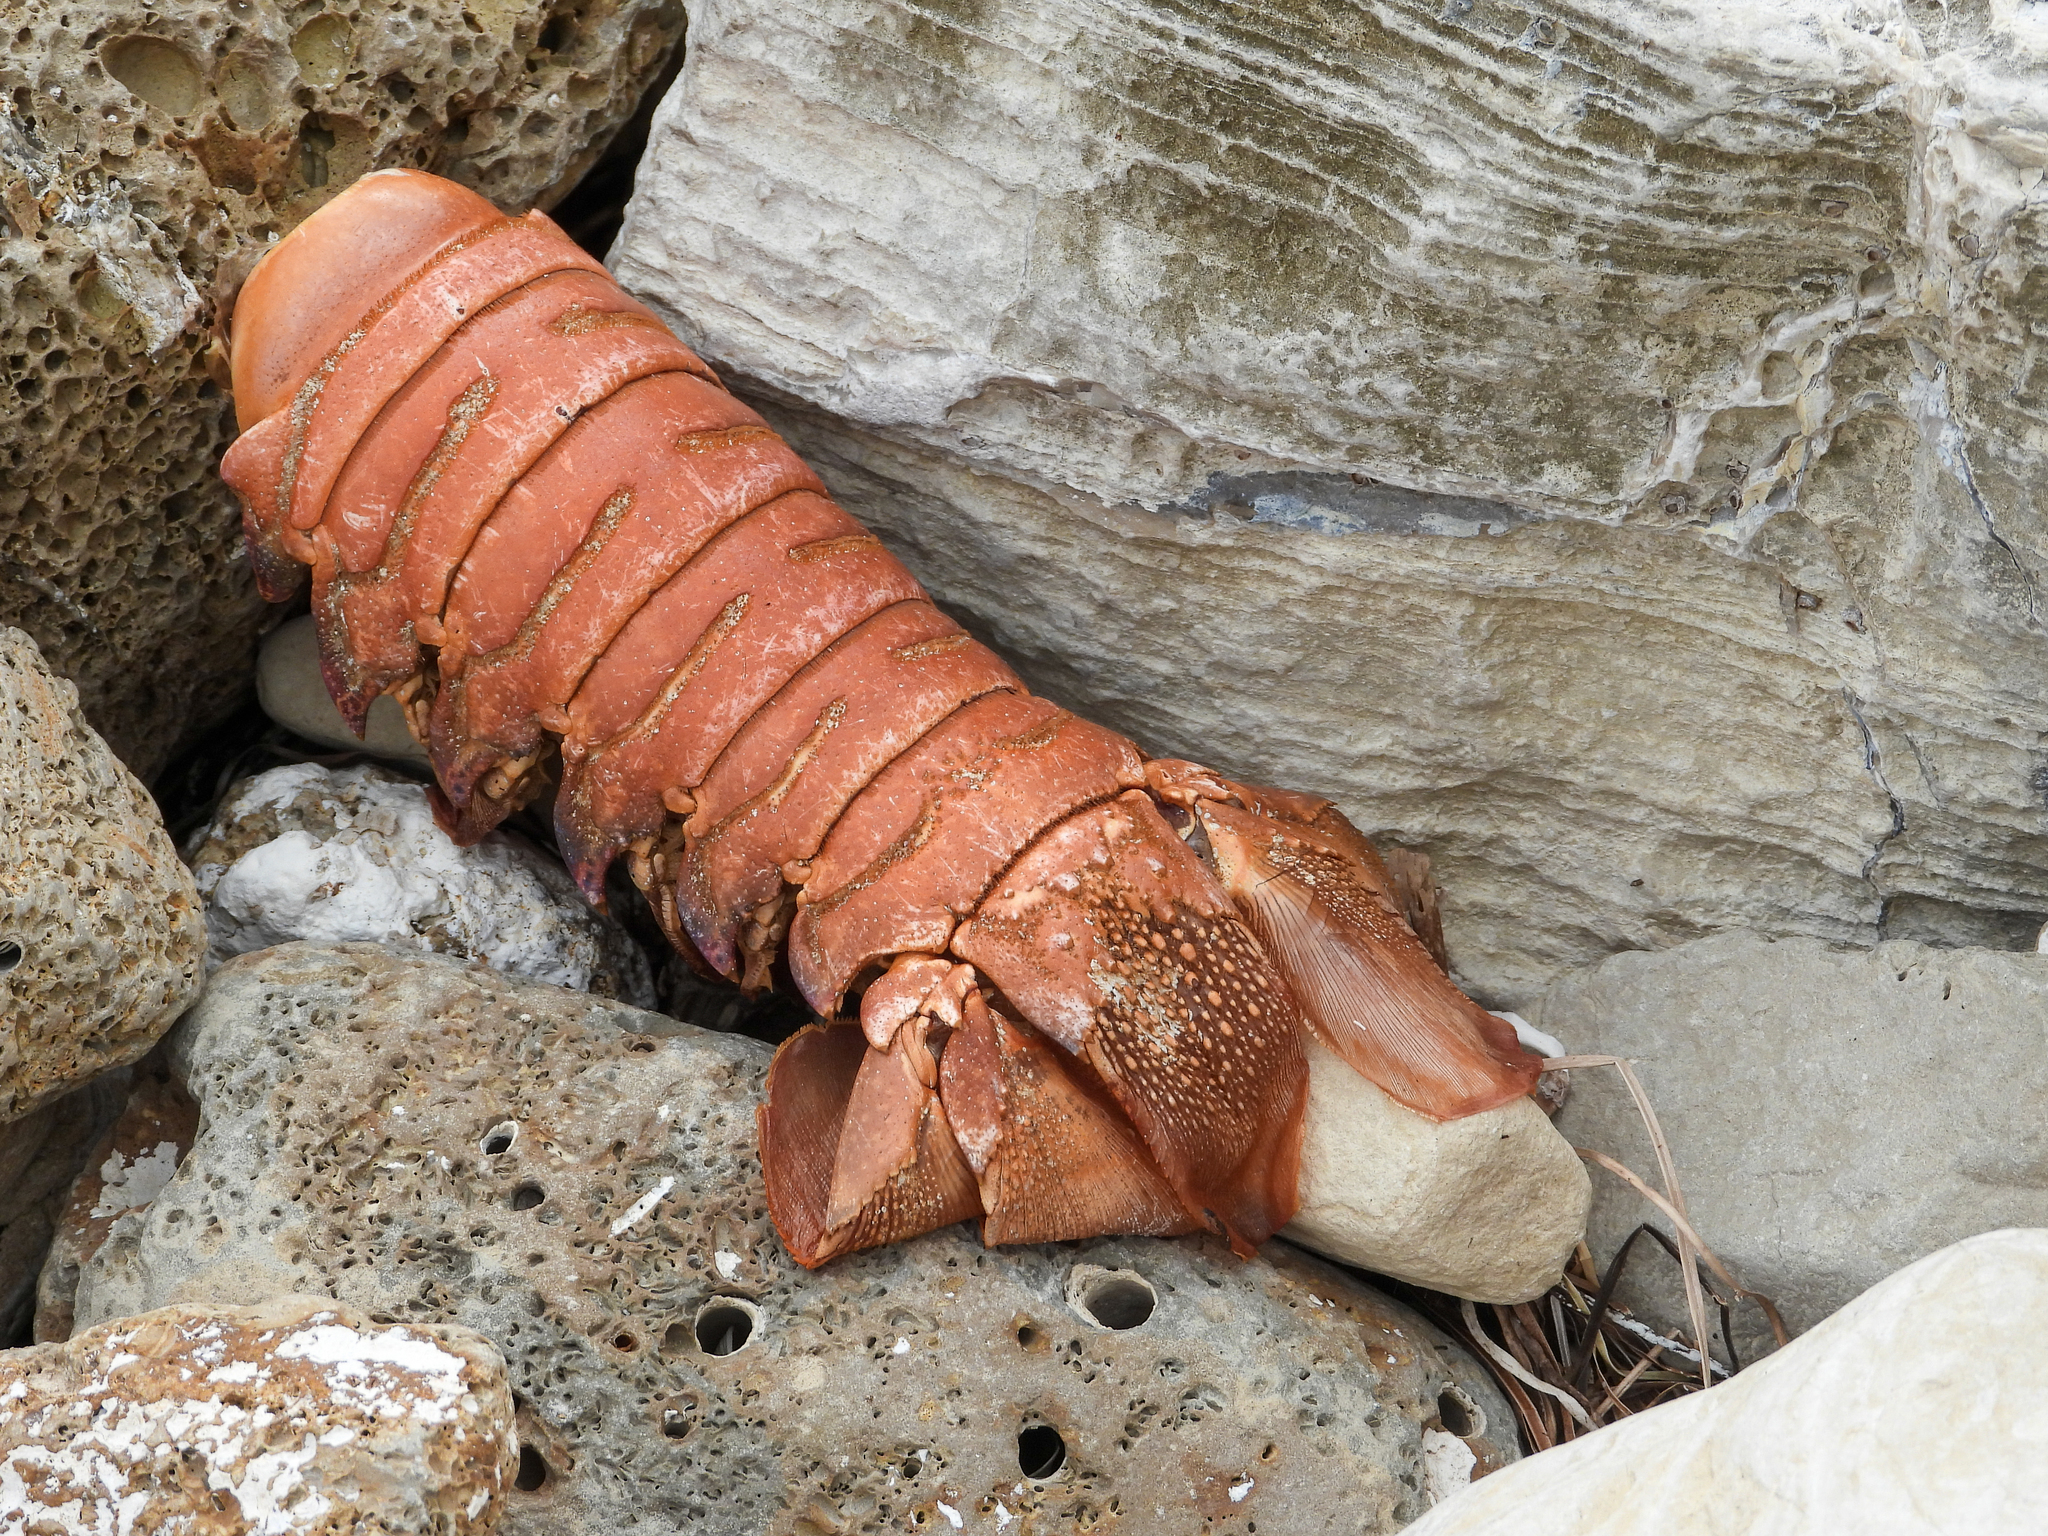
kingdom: Animalia
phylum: Arthropoda
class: Malacostraca
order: Decapoda
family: Palinuridae
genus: Panulirus
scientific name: Panulirus interruptus
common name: California spiny lobster
